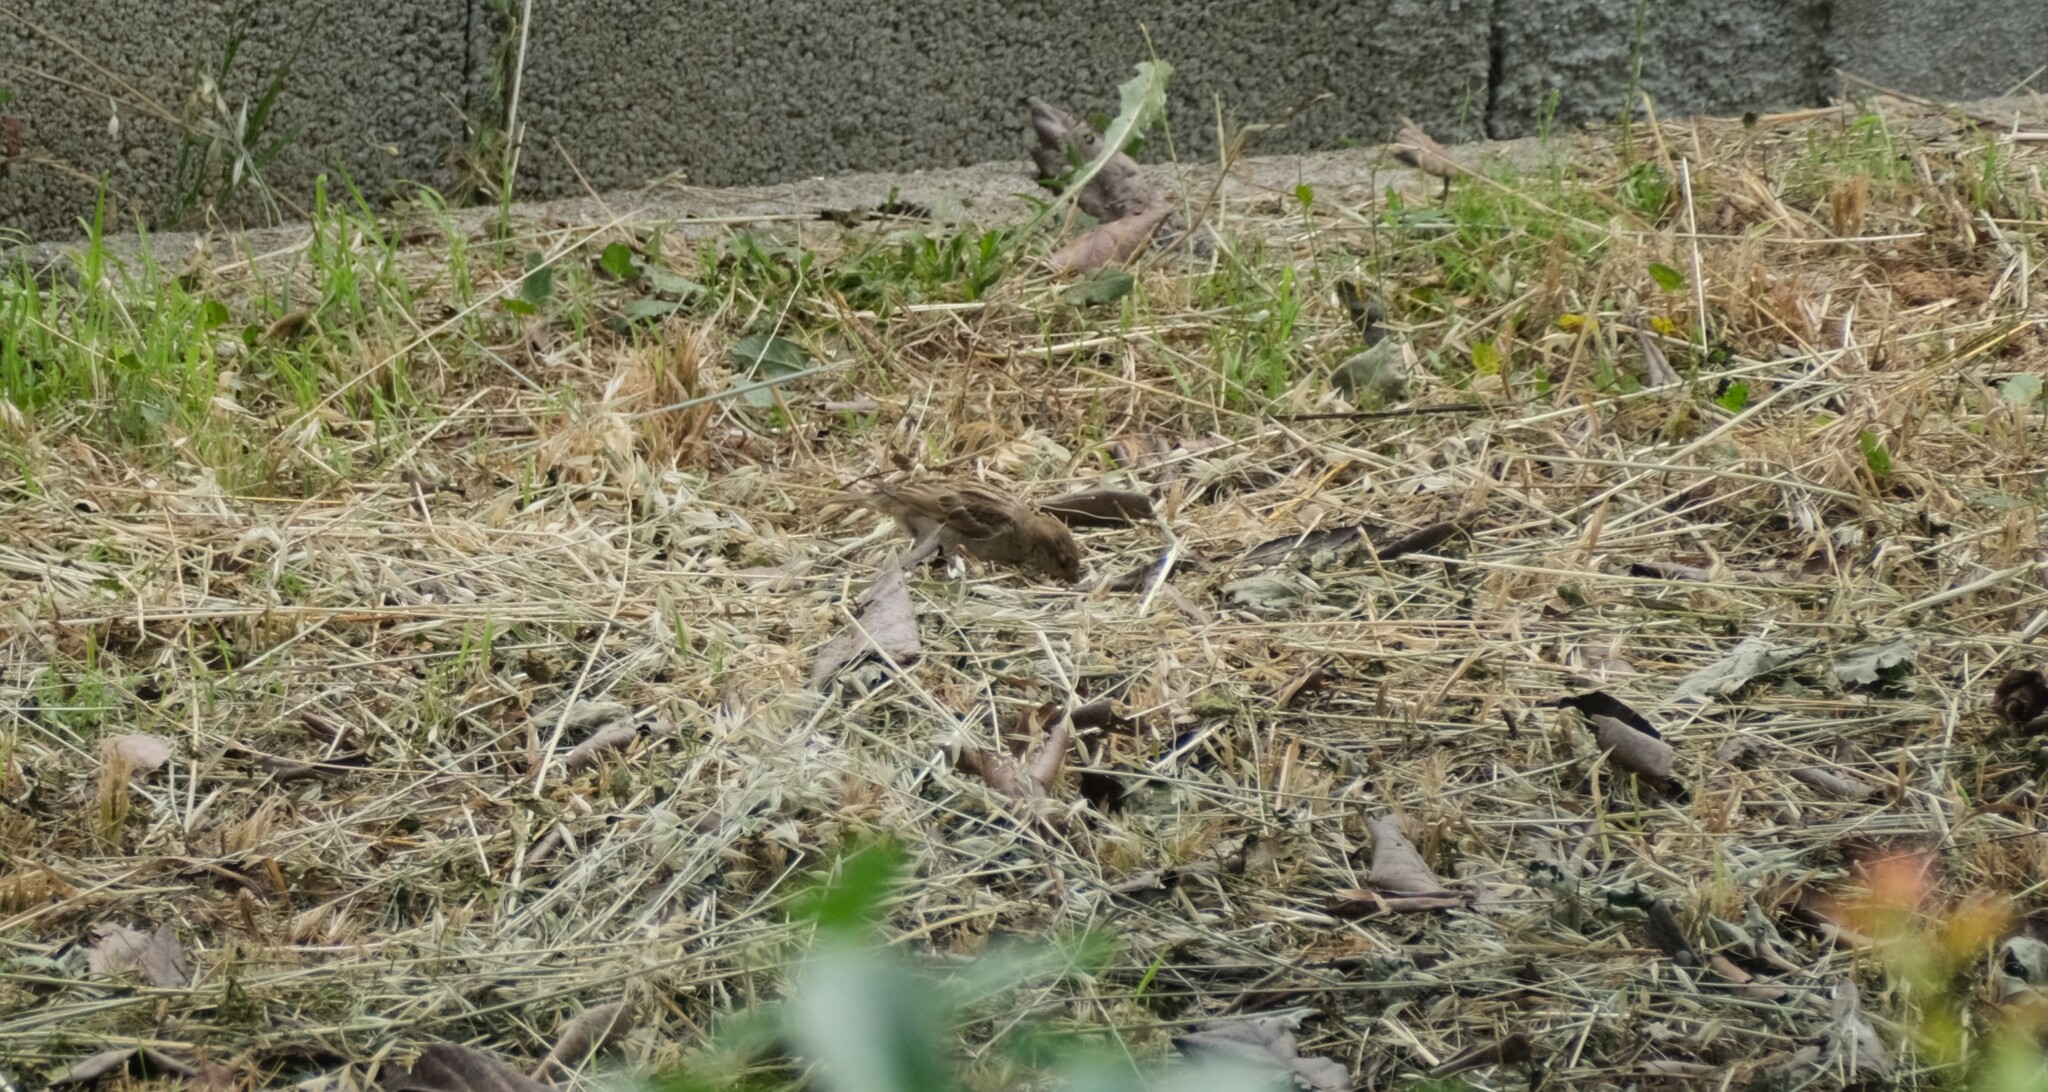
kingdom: Animalia
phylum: Chordata
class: Aves
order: Passeriformes
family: Passeridae
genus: Passer
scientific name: Passer domesticus
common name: House sparrow
